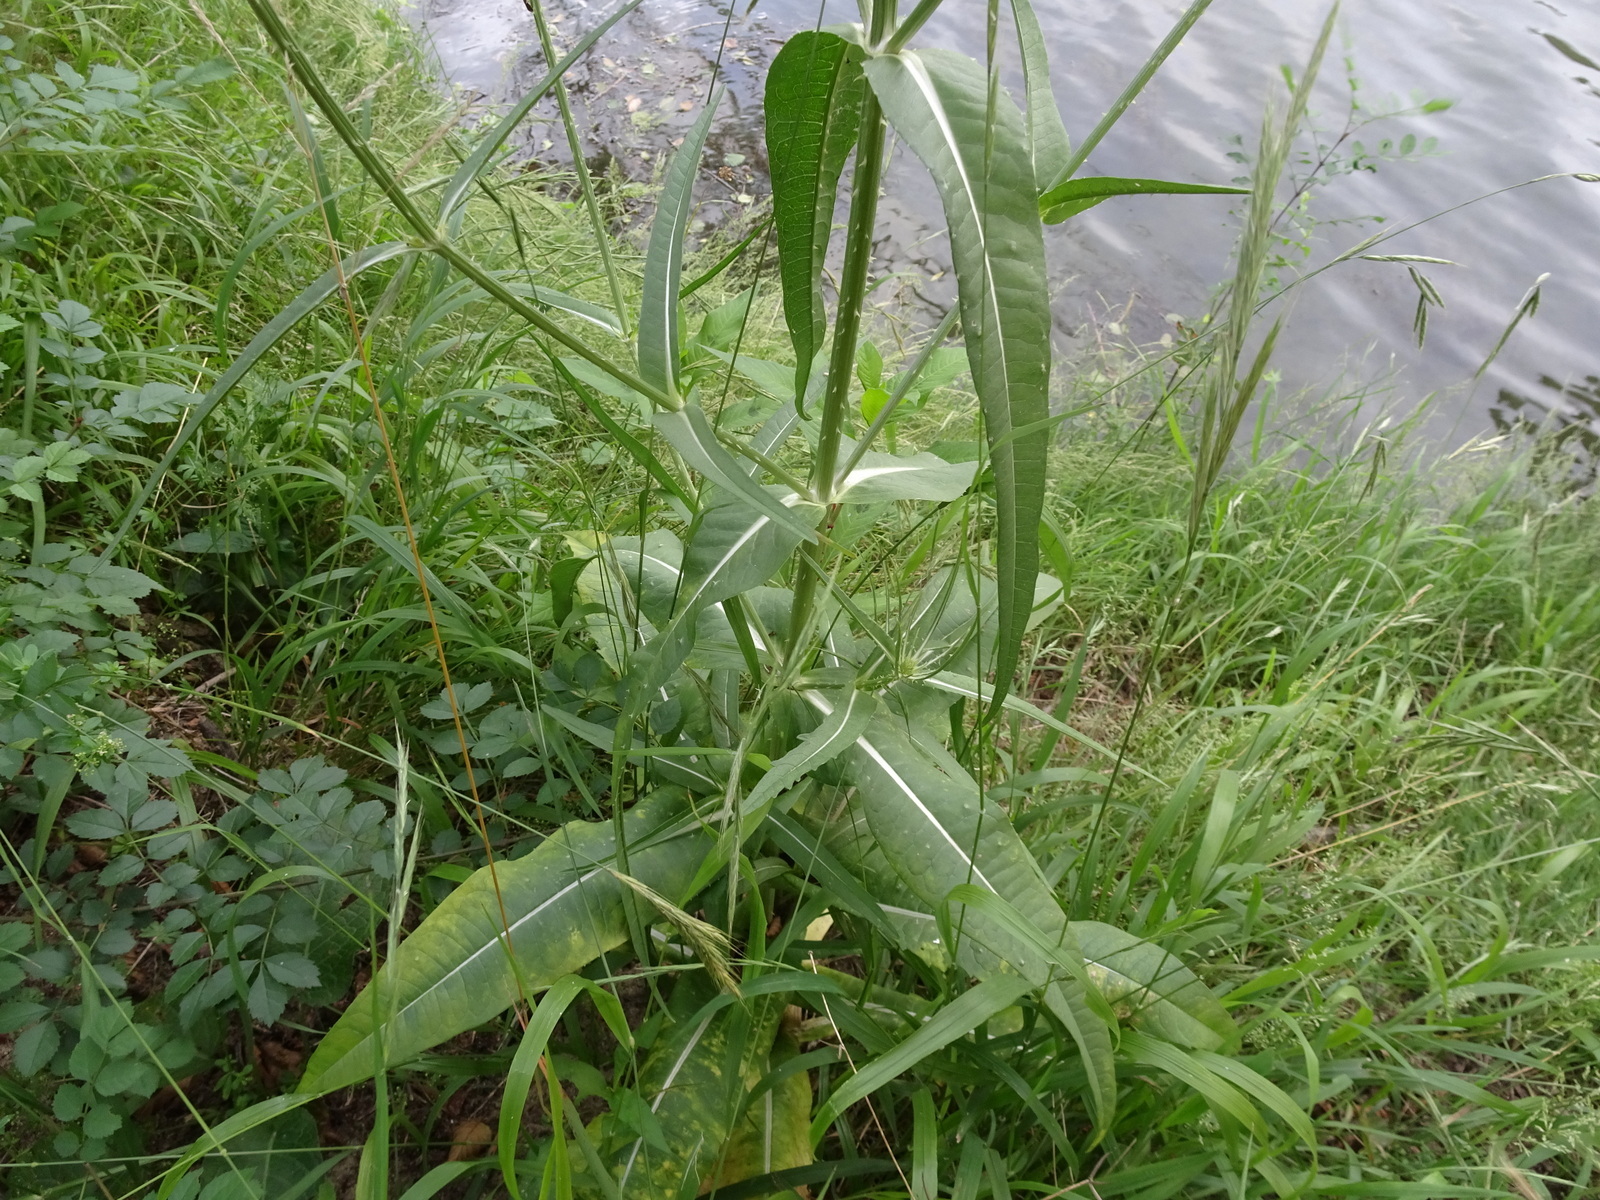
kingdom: Plantae
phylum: Tracheophyta
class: Magnoliopsida
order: Dipsacales
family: Caprifoliaceae
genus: Dipsacus
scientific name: Dipsacus fullonum
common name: Teasel
